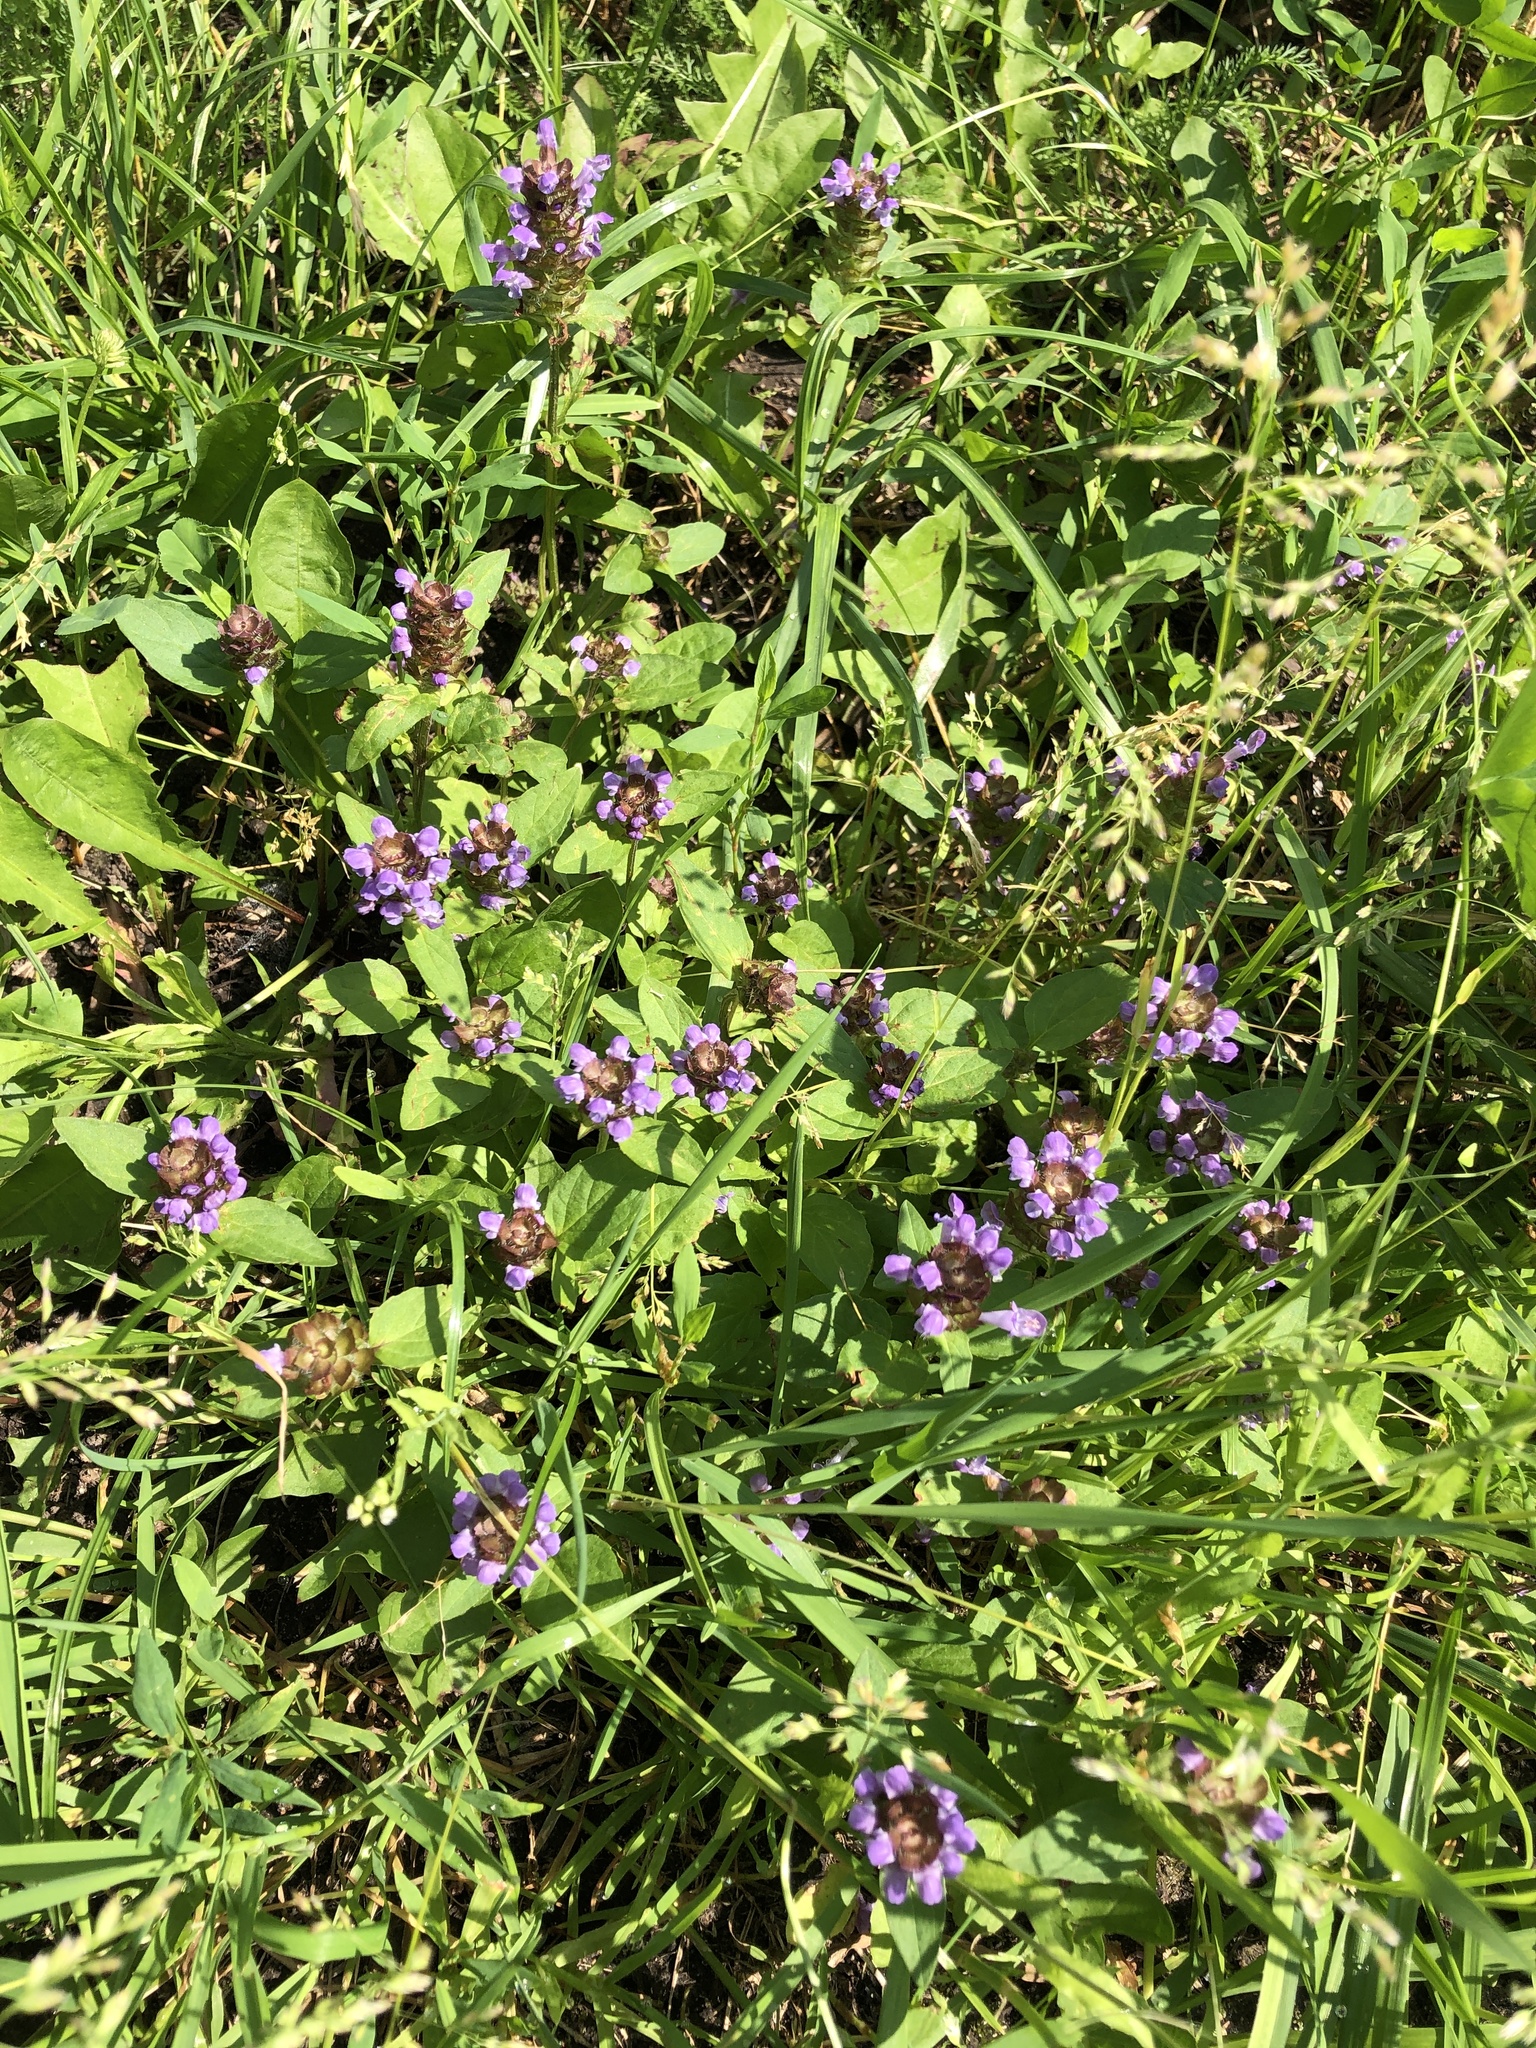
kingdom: Plantae
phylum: Tracheophyta
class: Magnoliopsida
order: Lamiales
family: Lamiaceae
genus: Prunella
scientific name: Prunella vulgaris
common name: Heal-all
